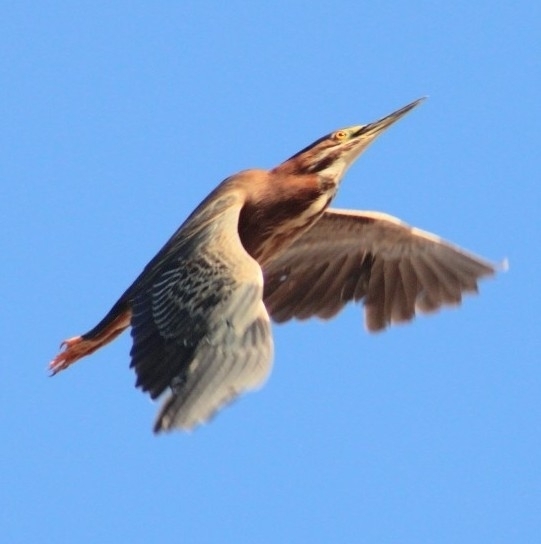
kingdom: Animalia
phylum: Chordata
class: Aves
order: Pelecaniformes
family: Ardeidae
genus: Butorides
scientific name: Butorides virescens
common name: Green heron
